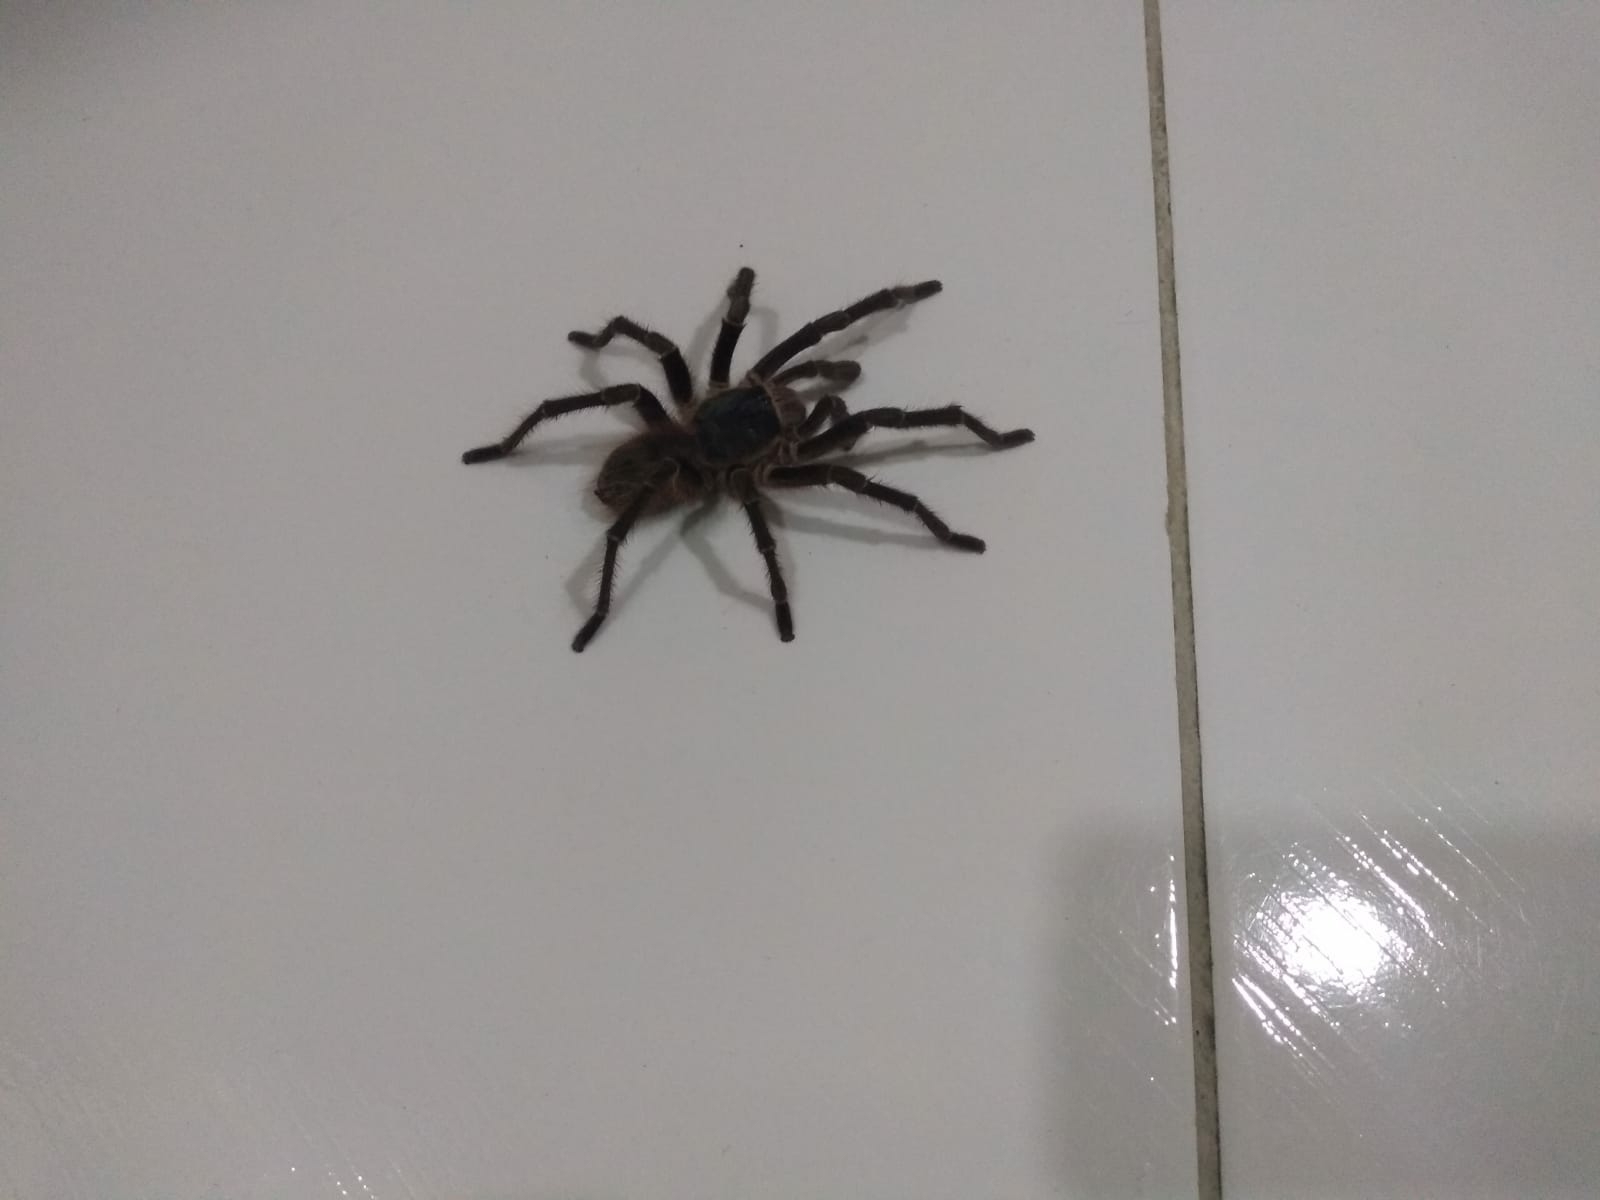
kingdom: Animalia
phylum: Arthropoda
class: Arachnida
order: Araneae
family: Theraphosidae
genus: Acanthoscurria
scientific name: Acanthoscurria natalensis
